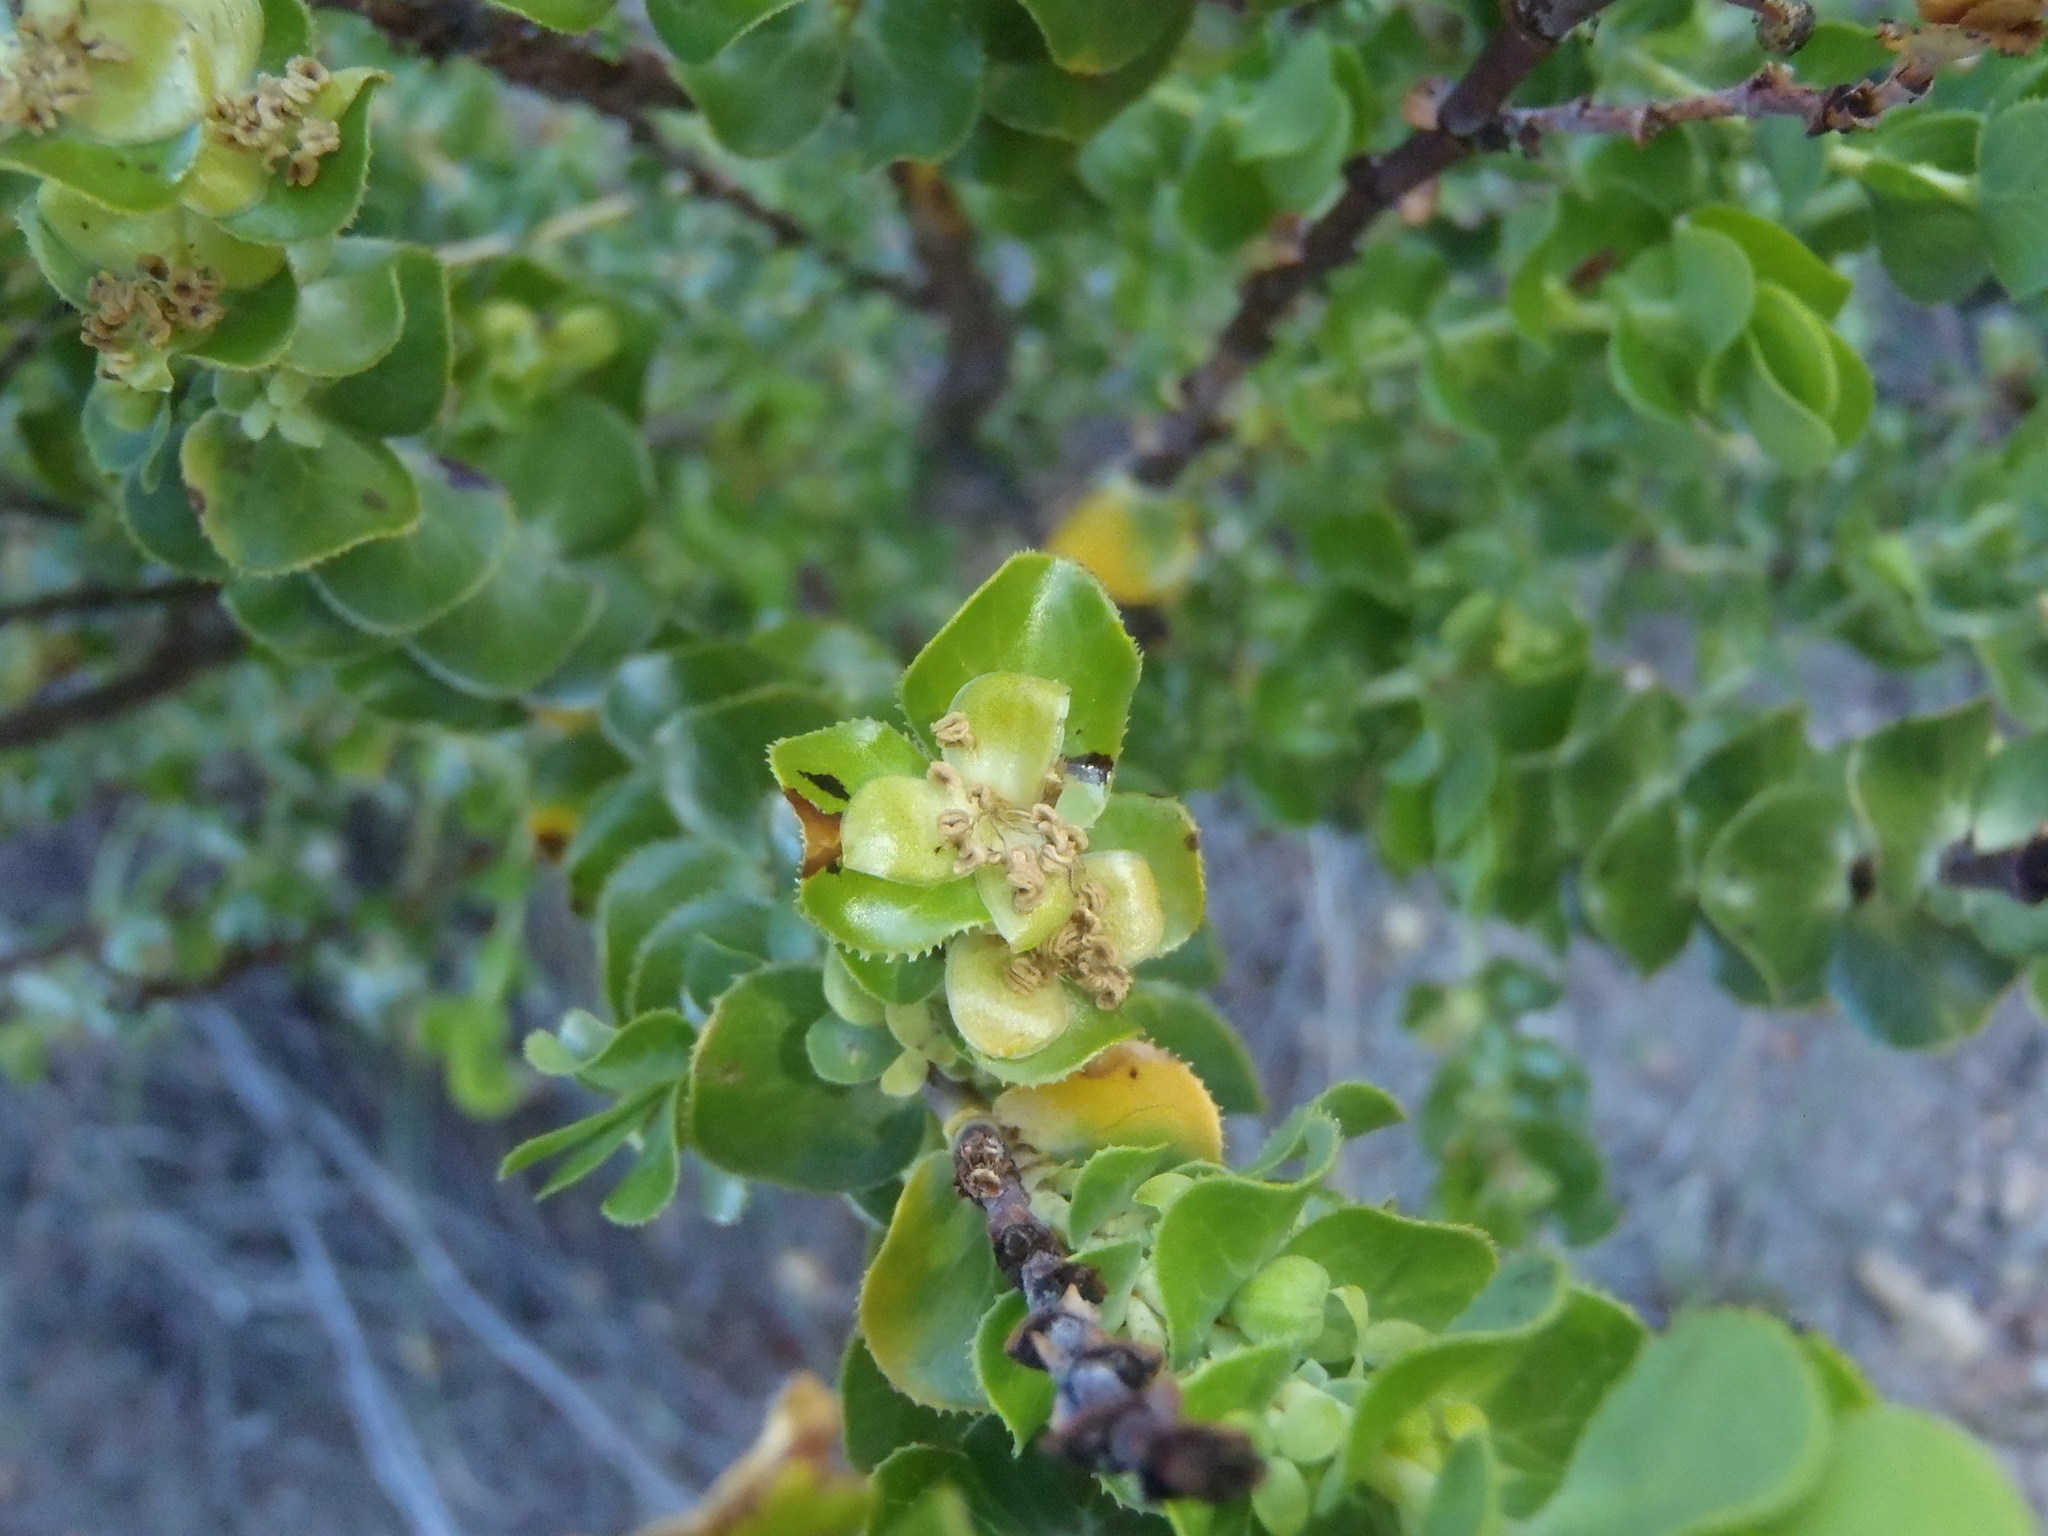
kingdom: Plantae
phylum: Tracheophyta
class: Magnoliopsida
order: Rosales
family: Rosaceae
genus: Cliffortia
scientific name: Cliffortia crenata
